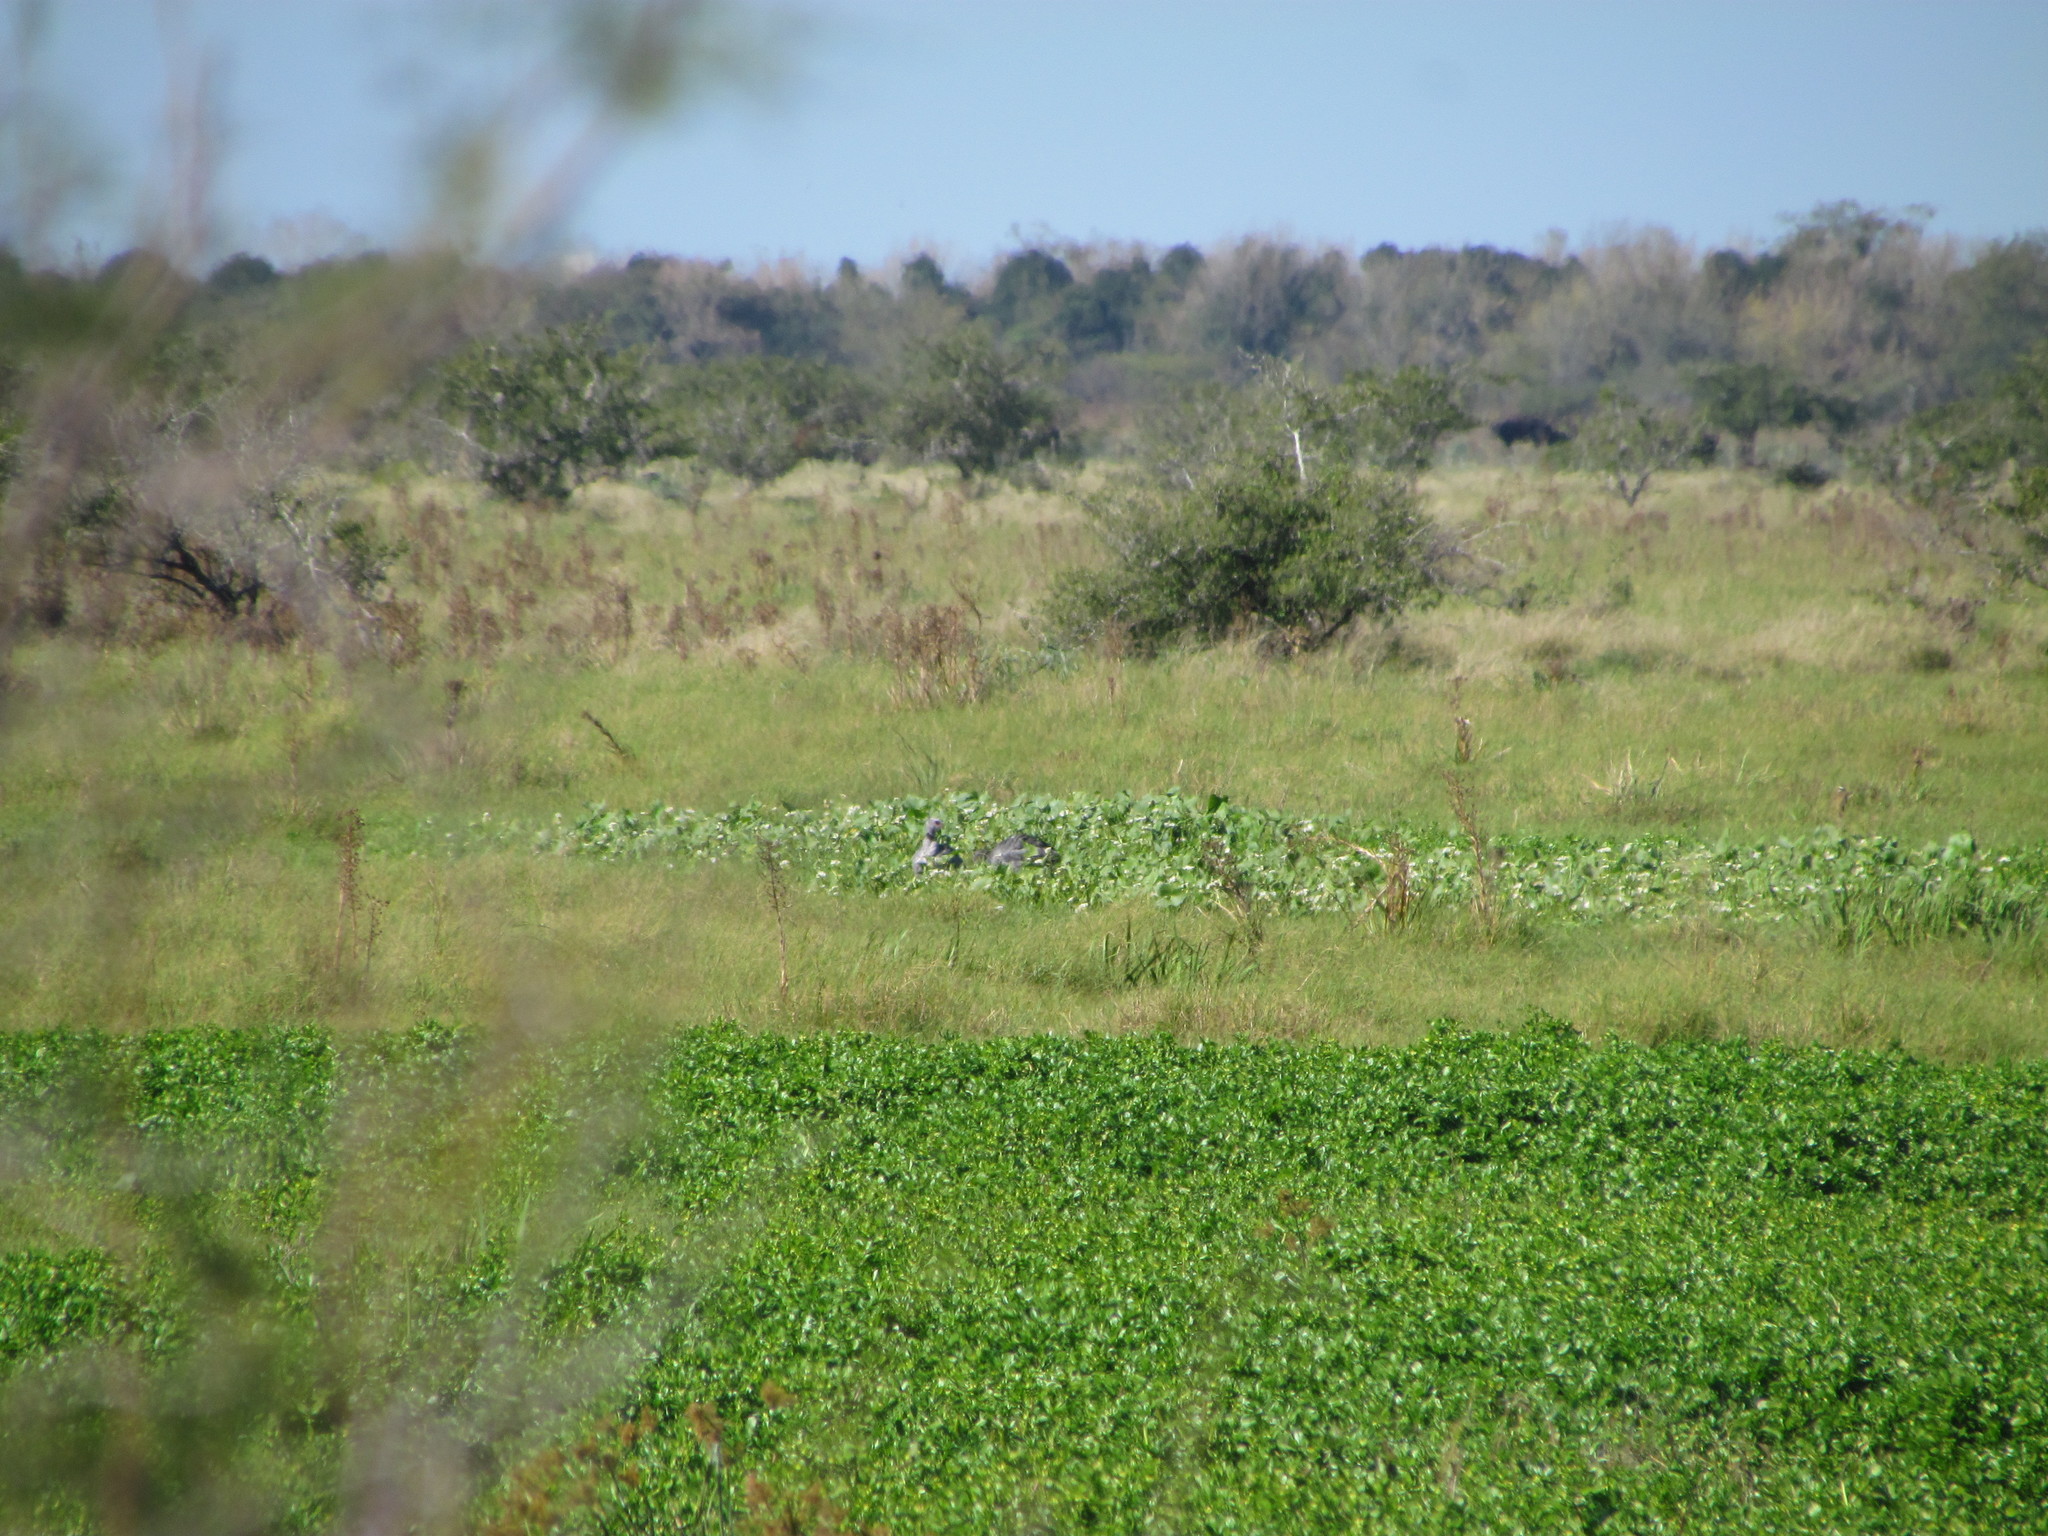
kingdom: Animalia
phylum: Chordata
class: Aves
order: Anseriformes
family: Anhimidae
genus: Chauna
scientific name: Chauna torquata
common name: Southern screamer
